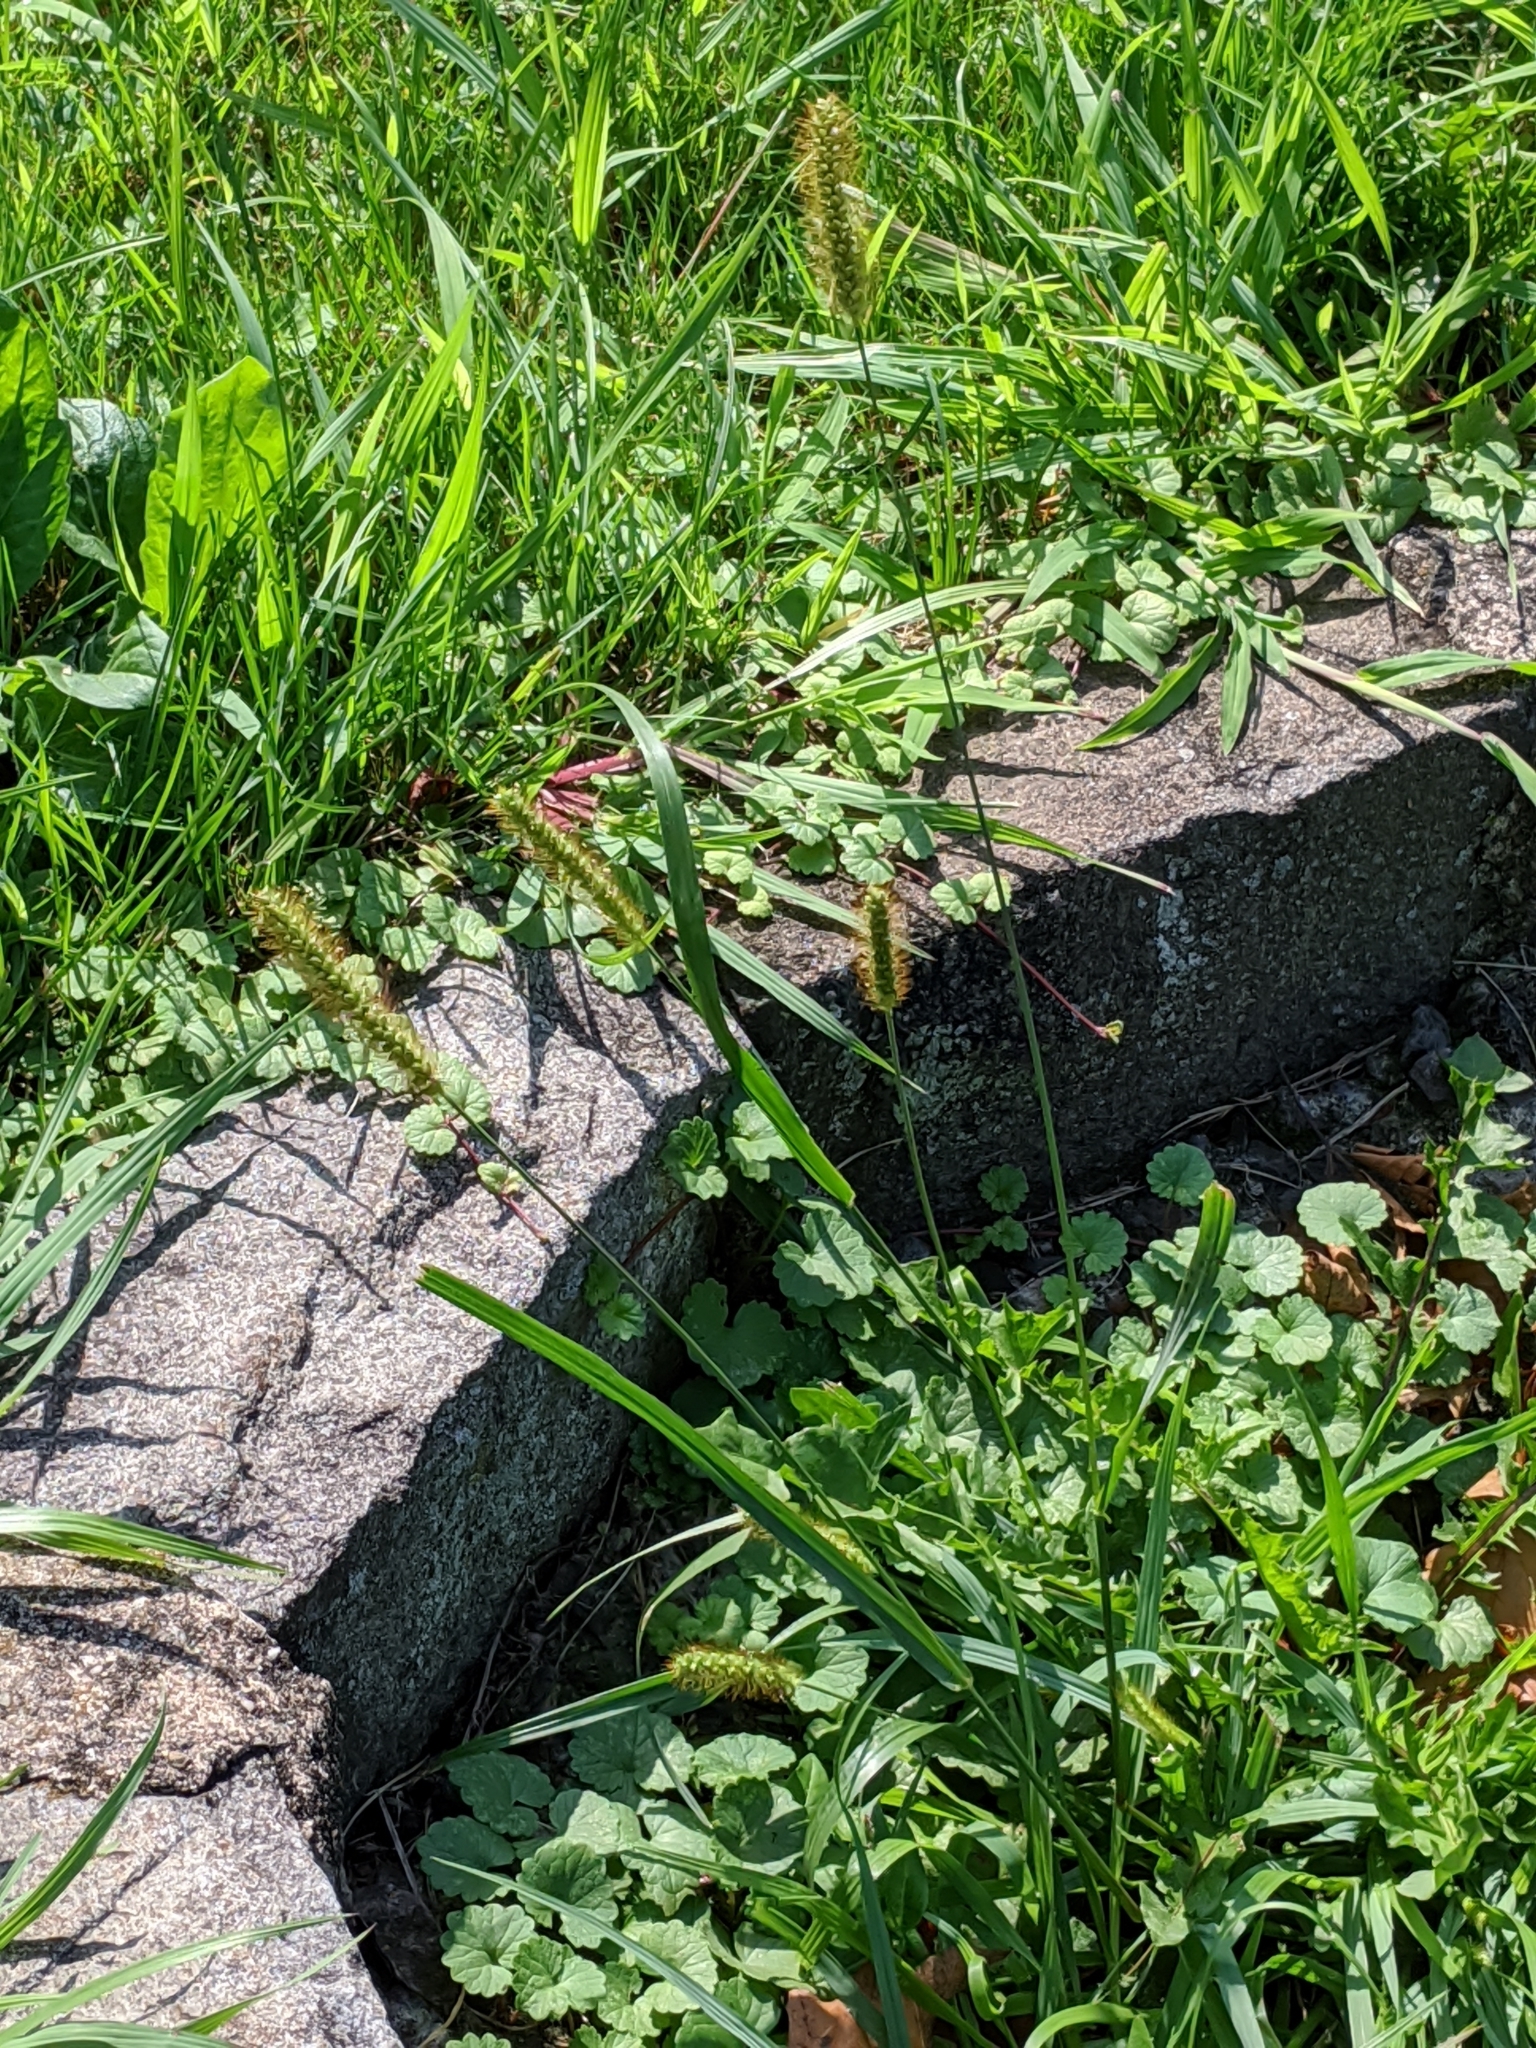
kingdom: Plantae
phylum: Tracheophyta
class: Liliopsida
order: Poales
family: Poaceae
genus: Setaria
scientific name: Setaria pumila
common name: Yellow bristle-grass
